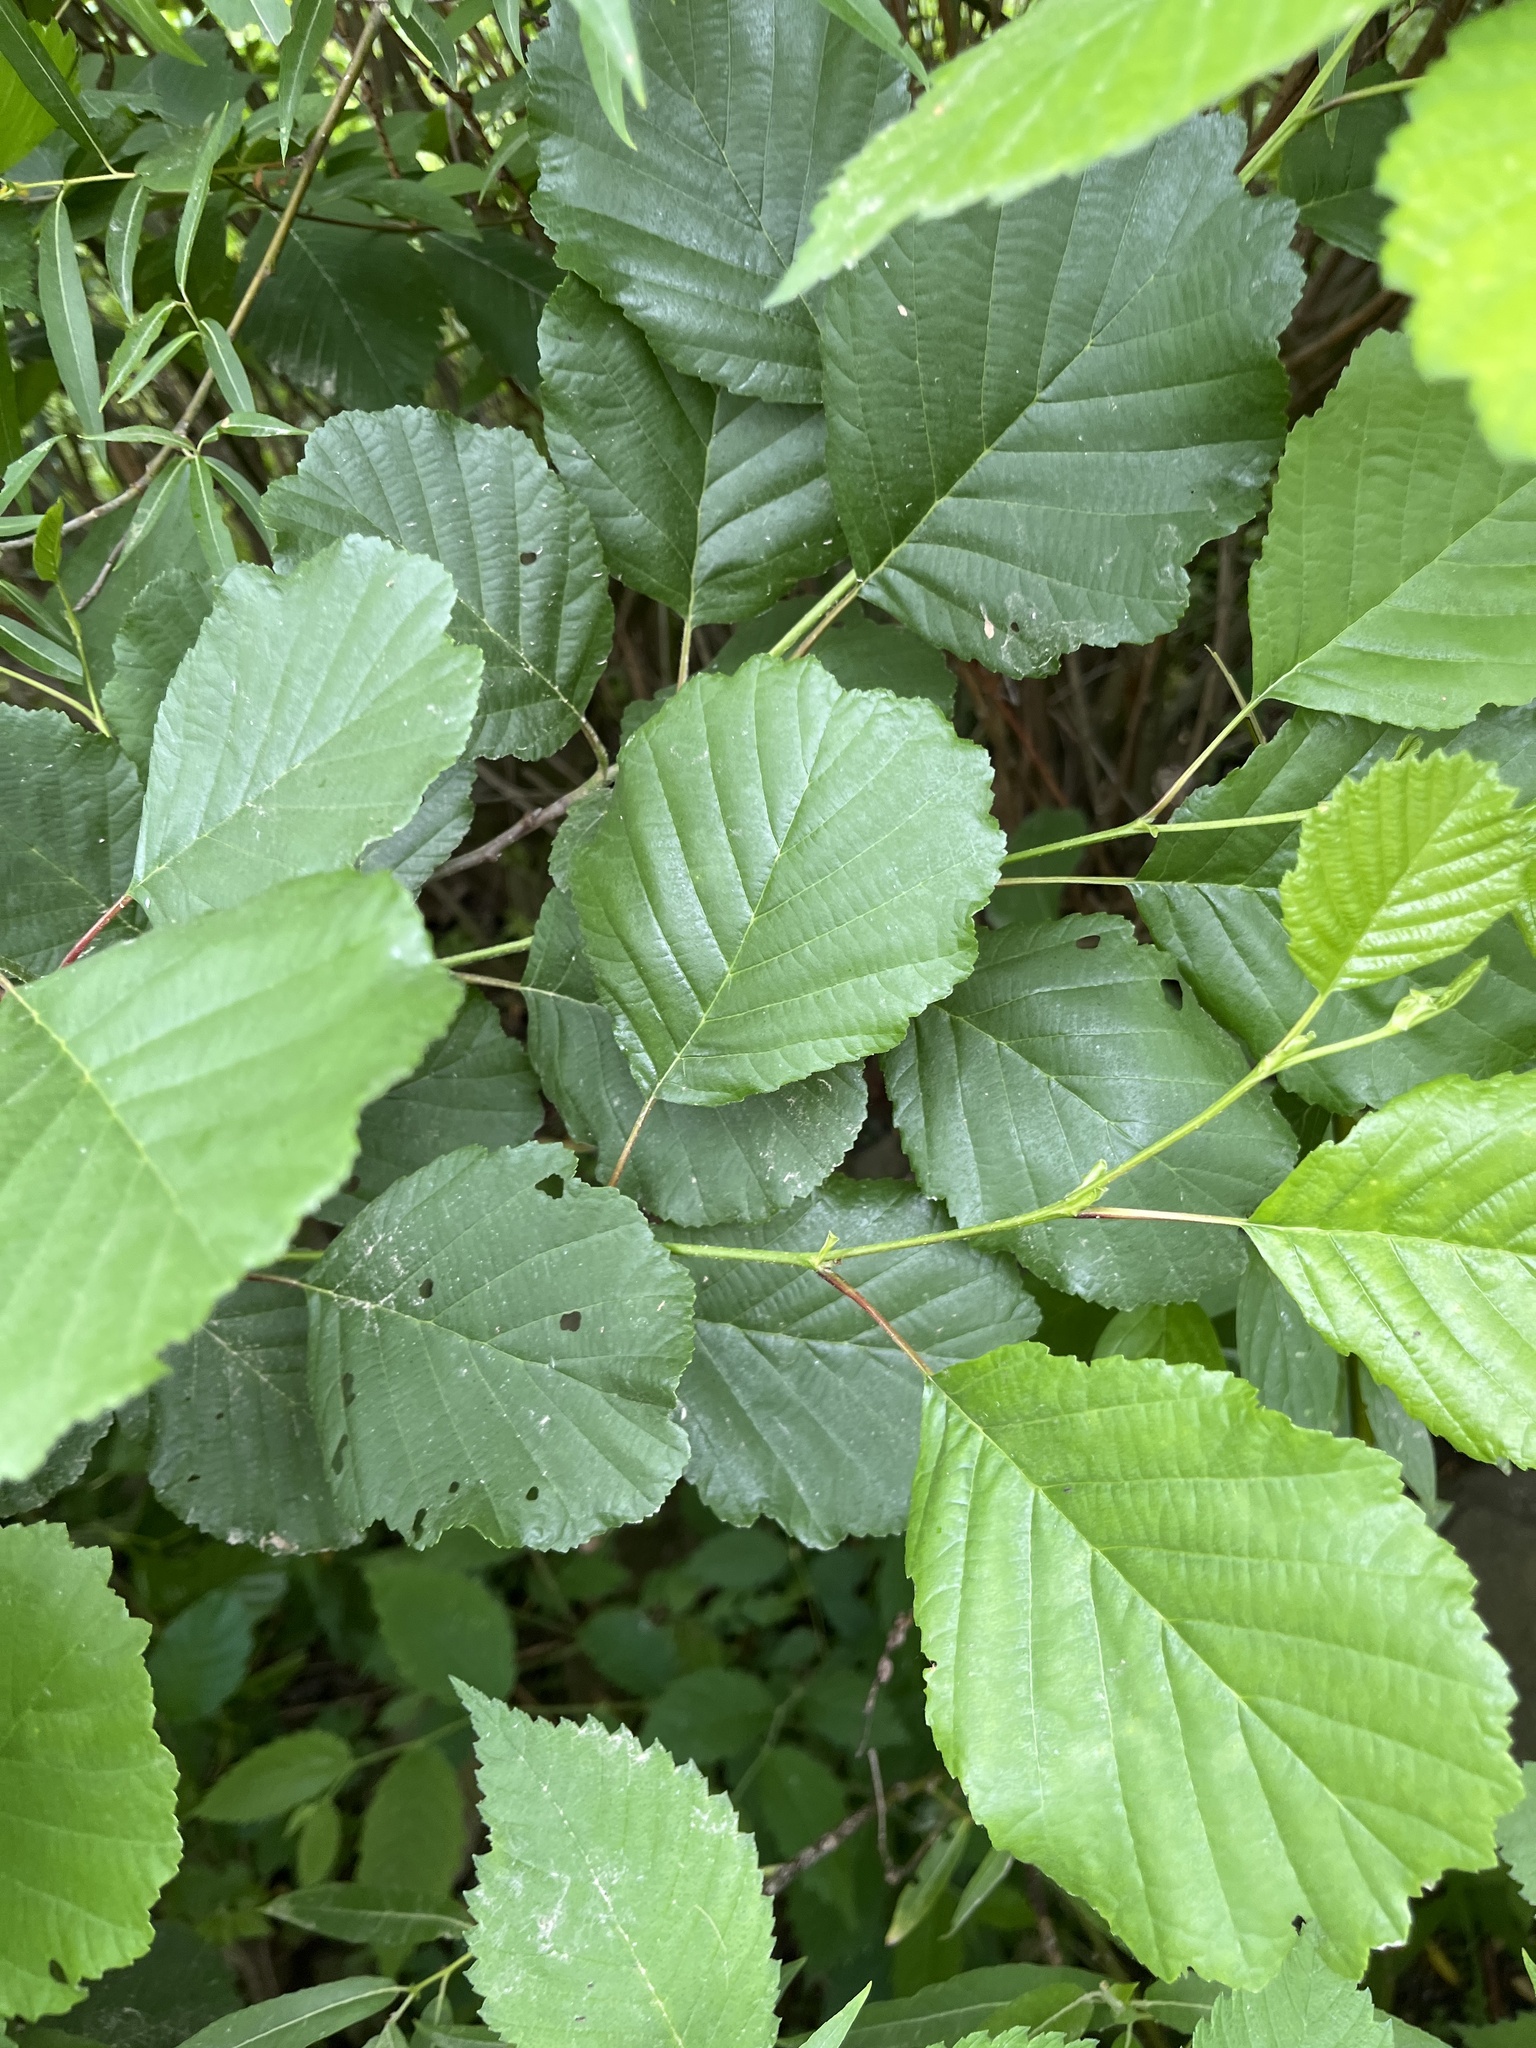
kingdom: Plantae
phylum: Tracheophyta
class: Magnoliopsida
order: Fagales
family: Betulaceae
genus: Alnus
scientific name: Alnus glutinosa
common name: Black alder
